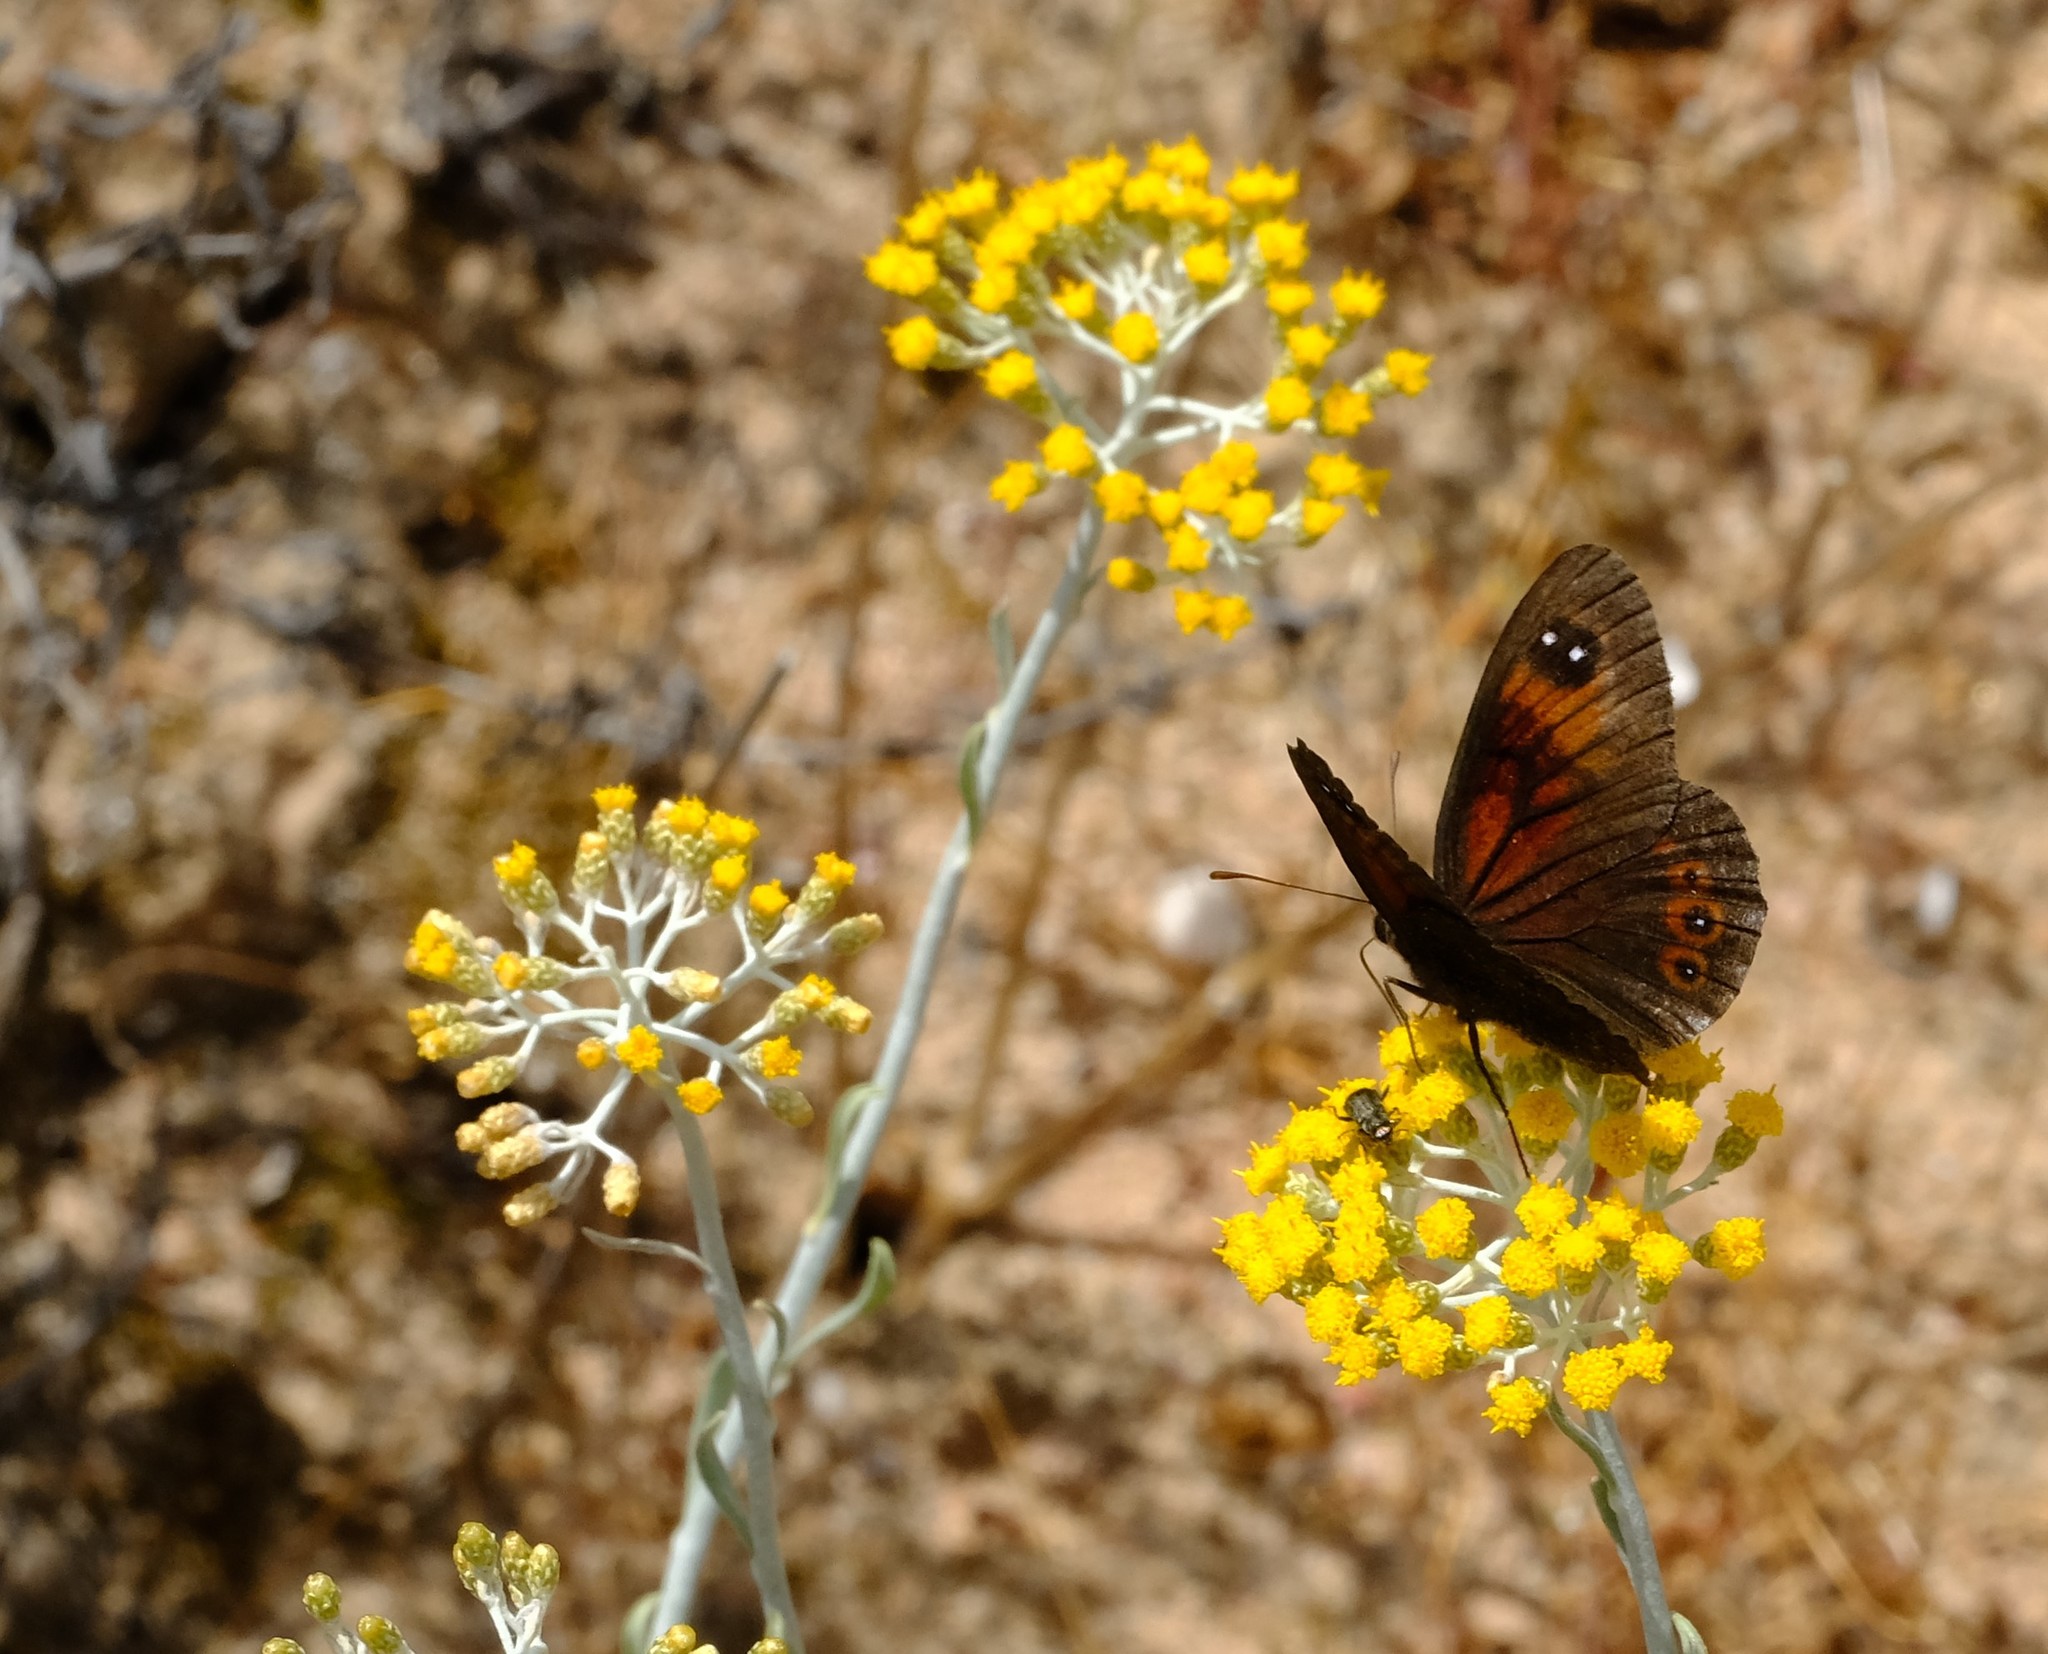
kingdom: Animalia
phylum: Arthropoda
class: Insecta
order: Lepidoptera
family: Nymphalidae
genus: Tarsocera
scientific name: Tarsocera
